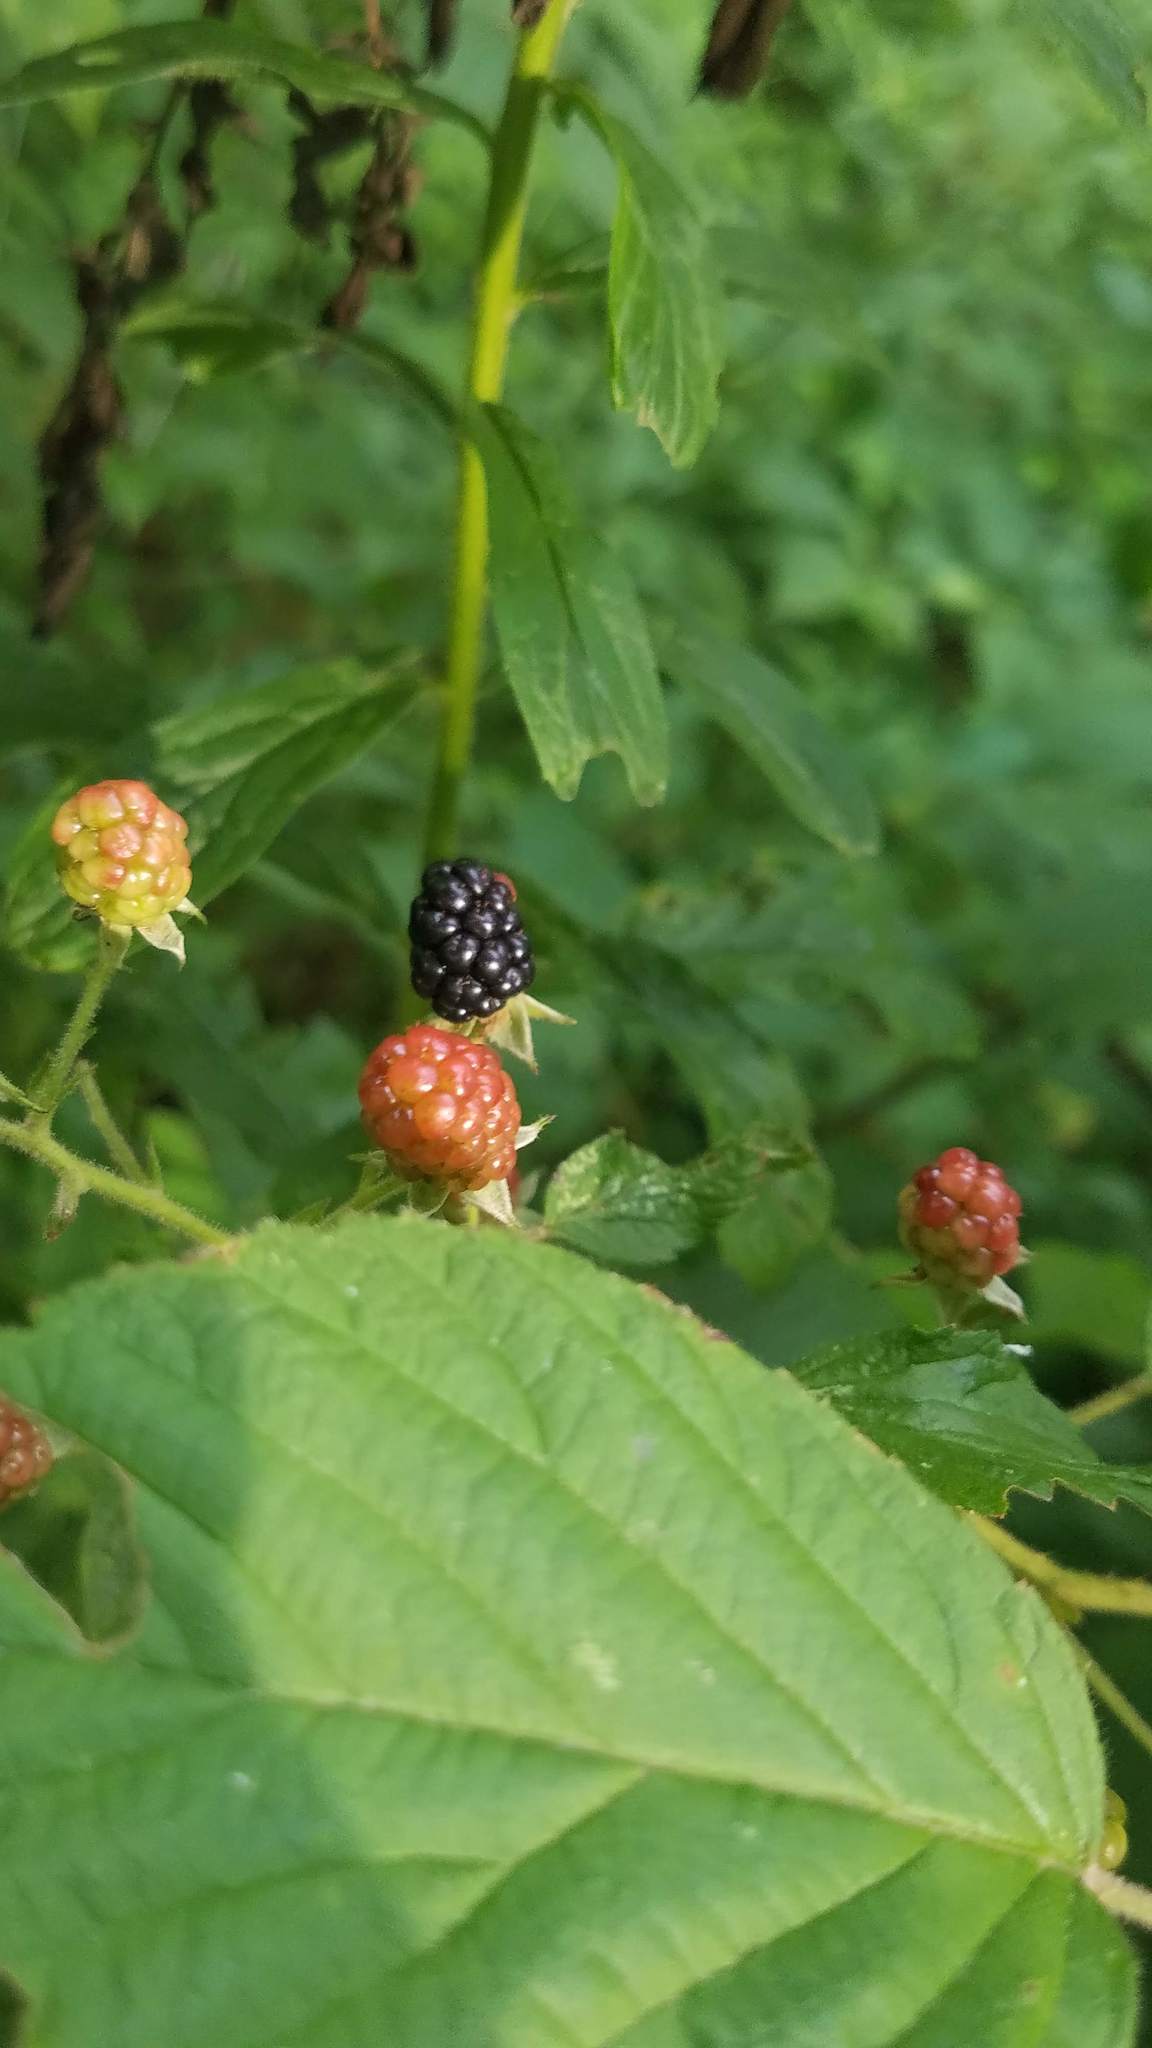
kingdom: Plantae
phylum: Tracheophyta
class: Magnoliopsida
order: Rosales
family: Rosaceae
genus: Rubus
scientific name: Rubus allegheniensis
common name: Allegheny blackberry
